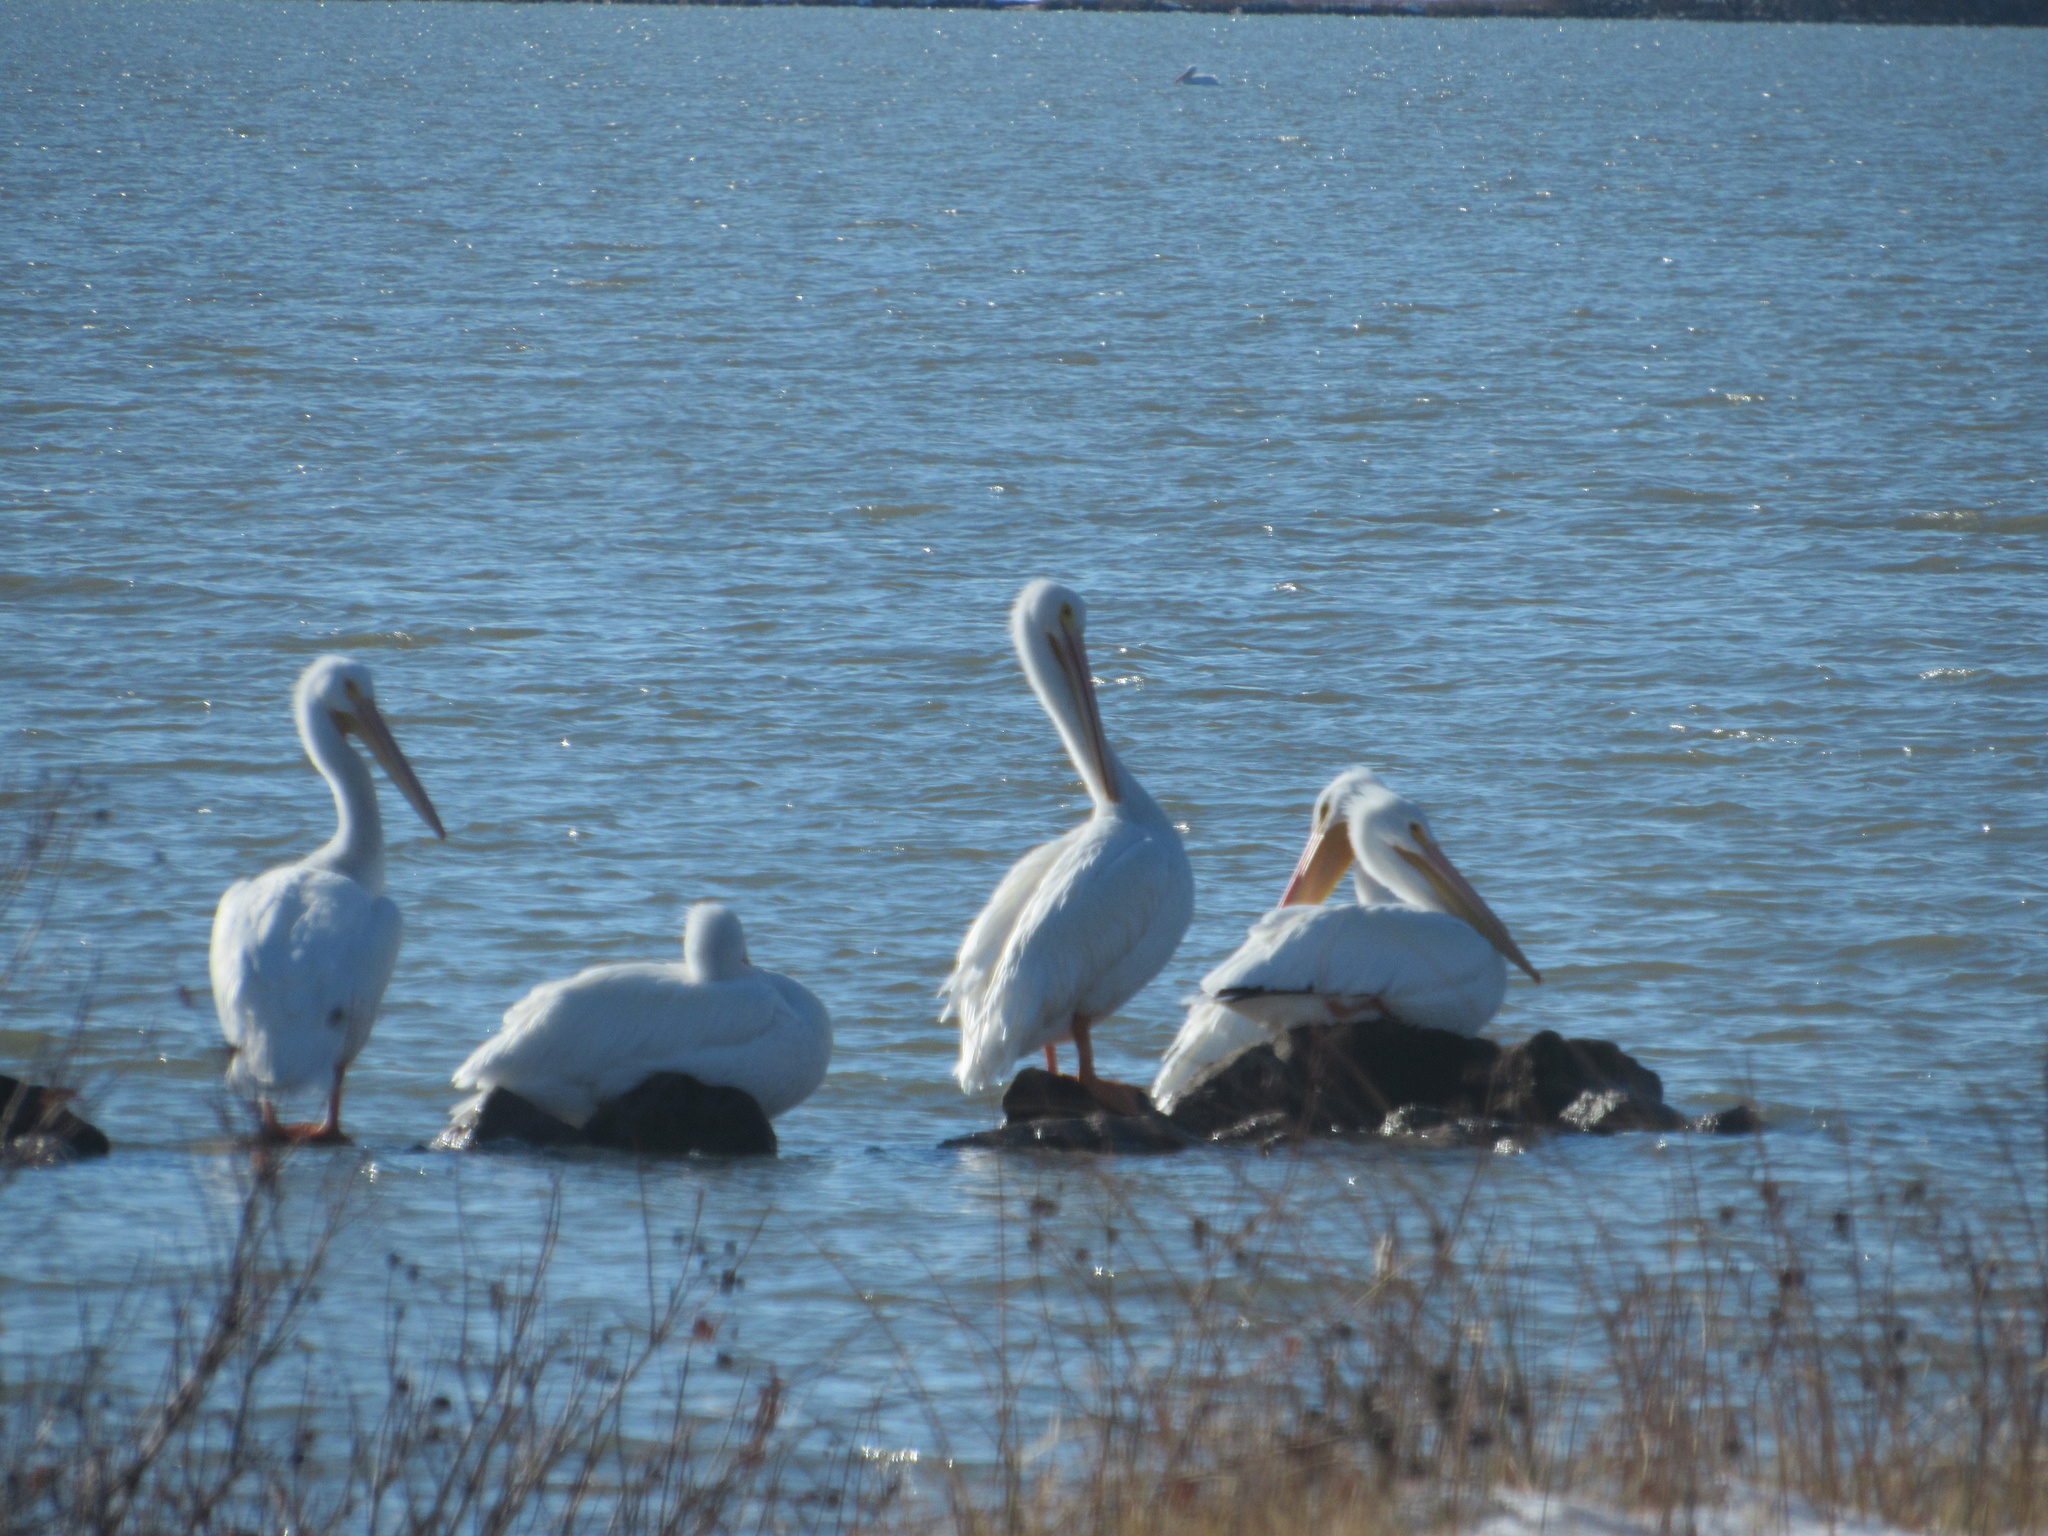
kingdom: Animalia
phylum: Chordata
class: Aves
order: Pelecaniformes
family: Pelecanidae
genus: Pelecanus
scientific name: Pelecanus erythrorhynchos
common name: American white pelican
